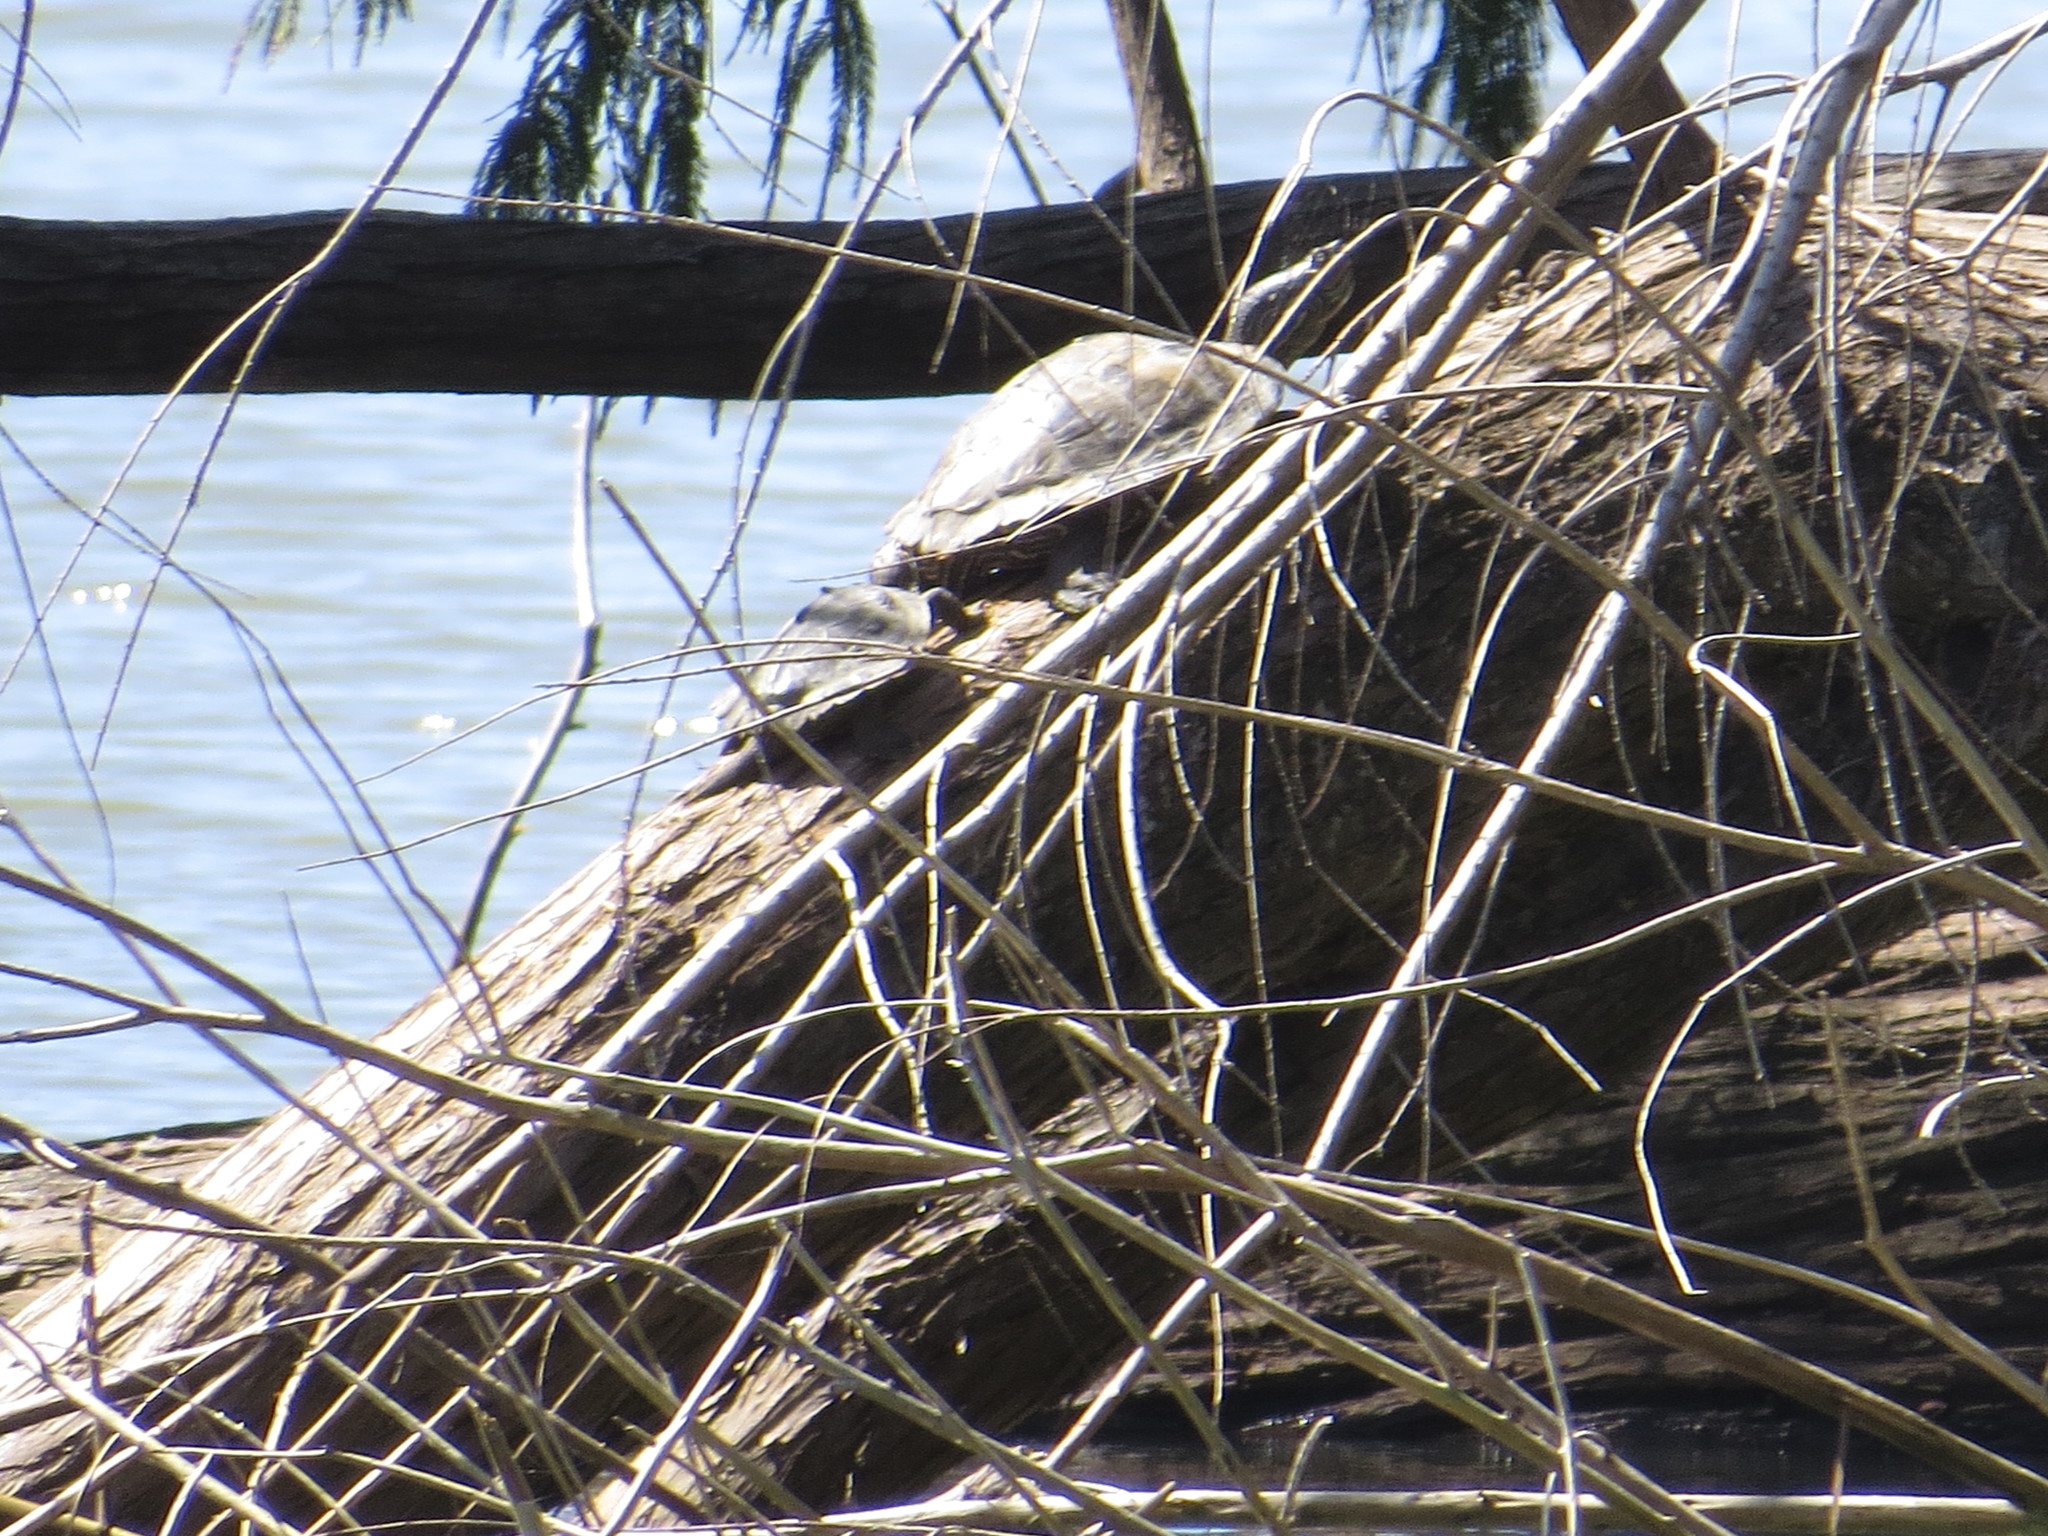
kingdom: Animalia
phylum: Chordata
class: Testudines
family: Emydidae
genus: Graptemys
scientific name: Graptemys pseudogeographica
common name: False map turtle
